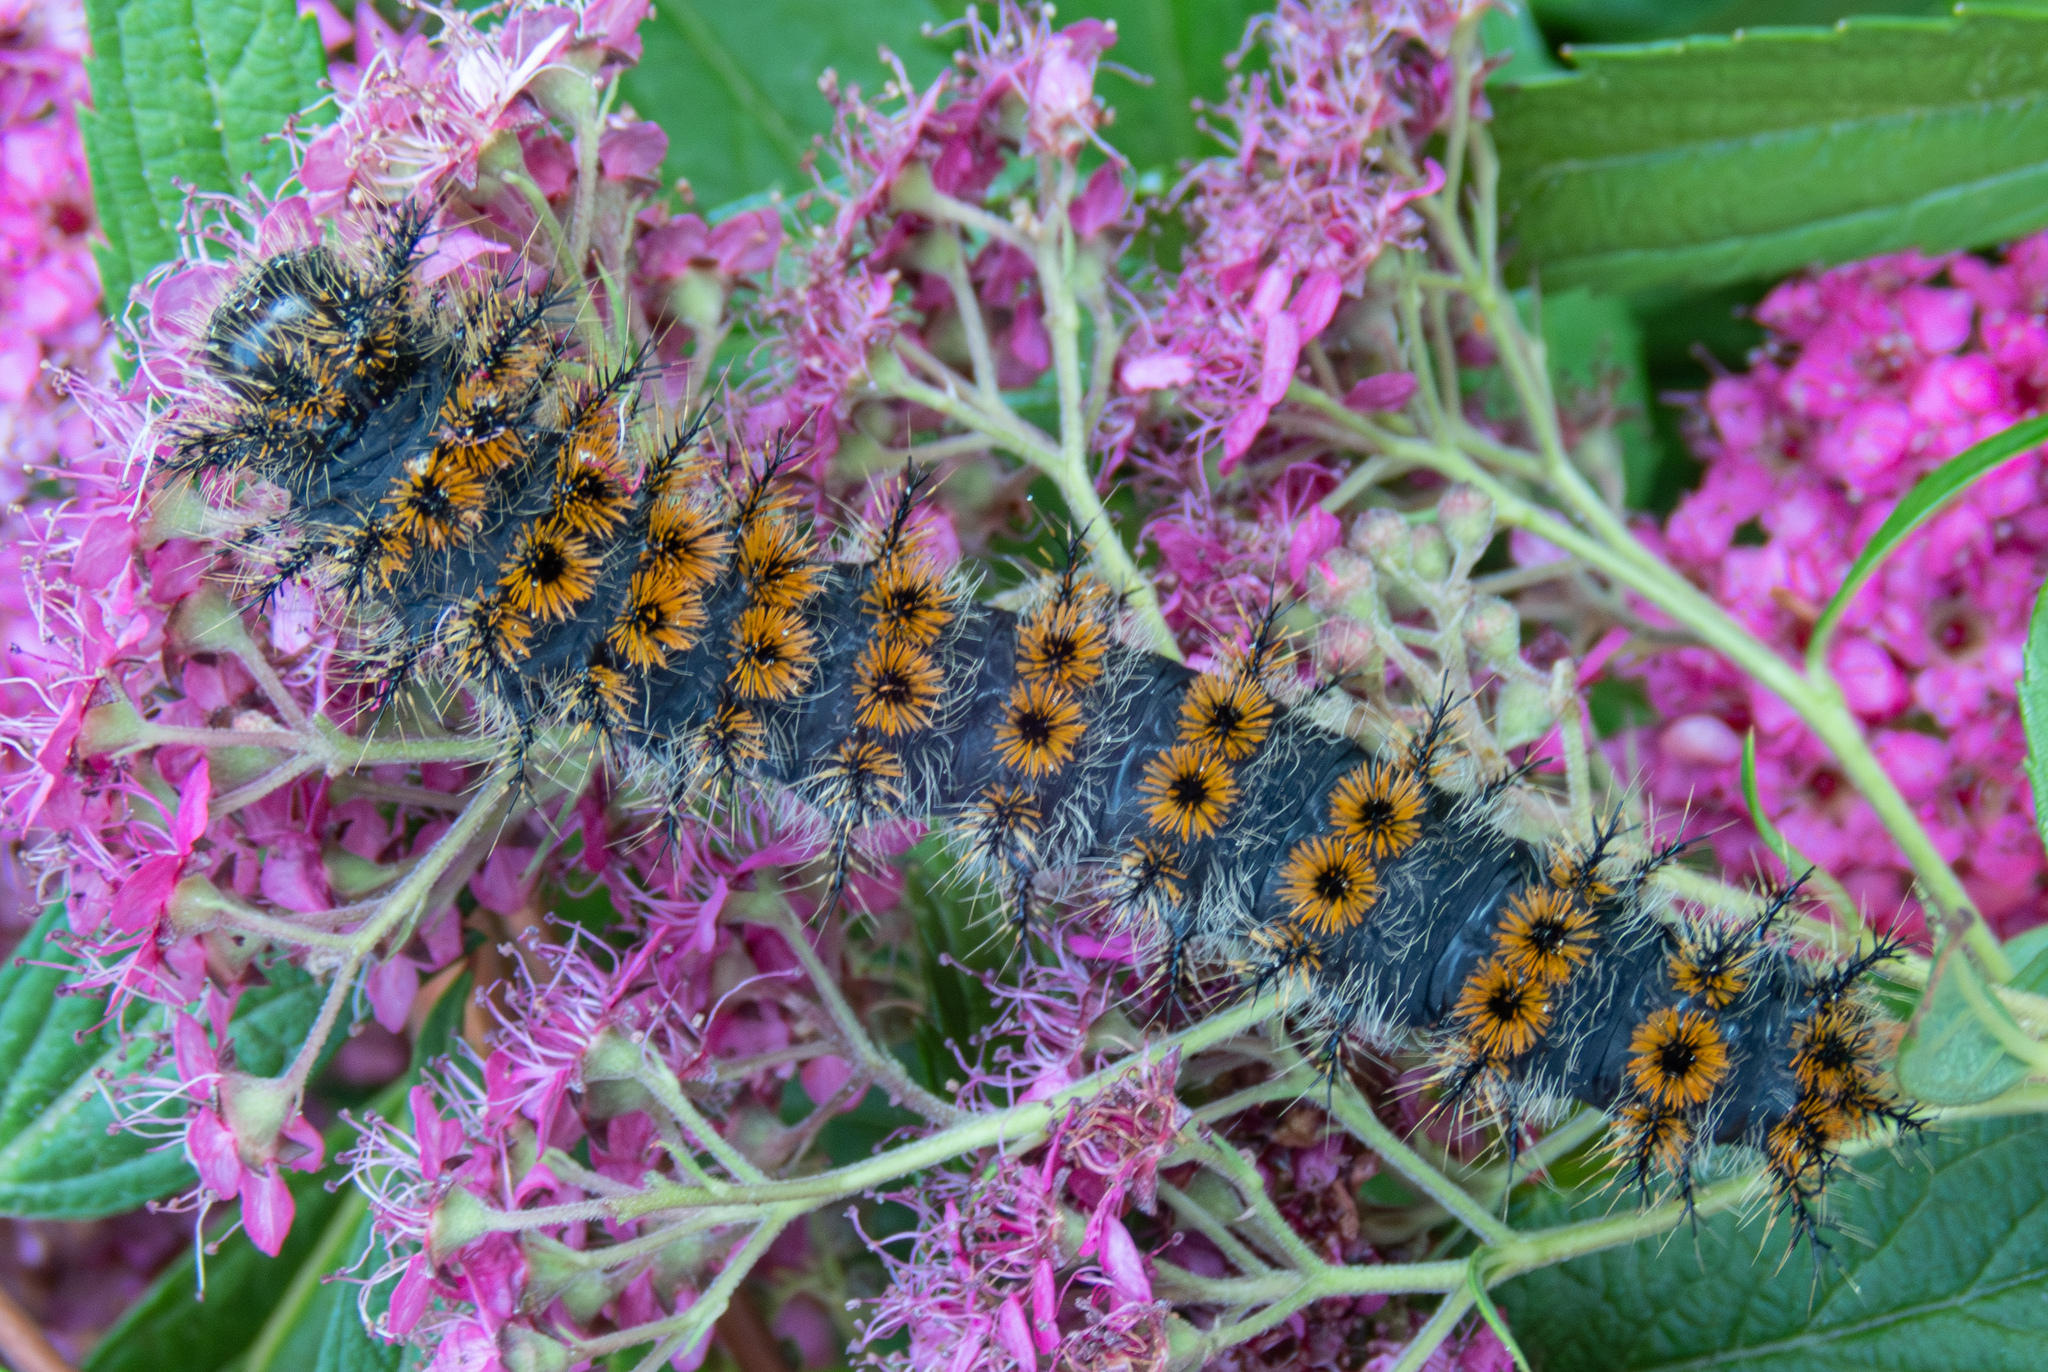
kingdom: Animalia
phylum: Arthropoda
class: Insecta
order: Lepidoptera
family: Saturniidae
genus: Hemileuca
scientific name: Hemileuca eglanterina
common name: Western sheepmoth
